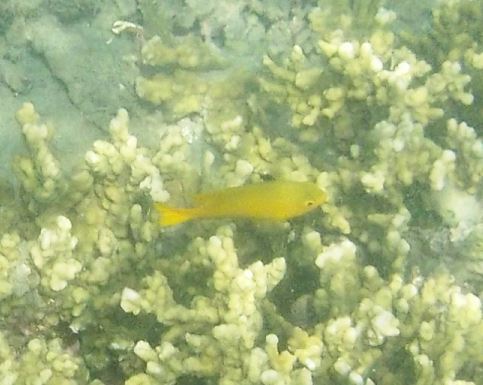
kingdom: Animalia
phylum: Chordata
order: Perciformes
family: Pomacentridae
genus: Pomacentrus
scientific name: Pomacentrus moluccensis
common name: Lemon damsel
